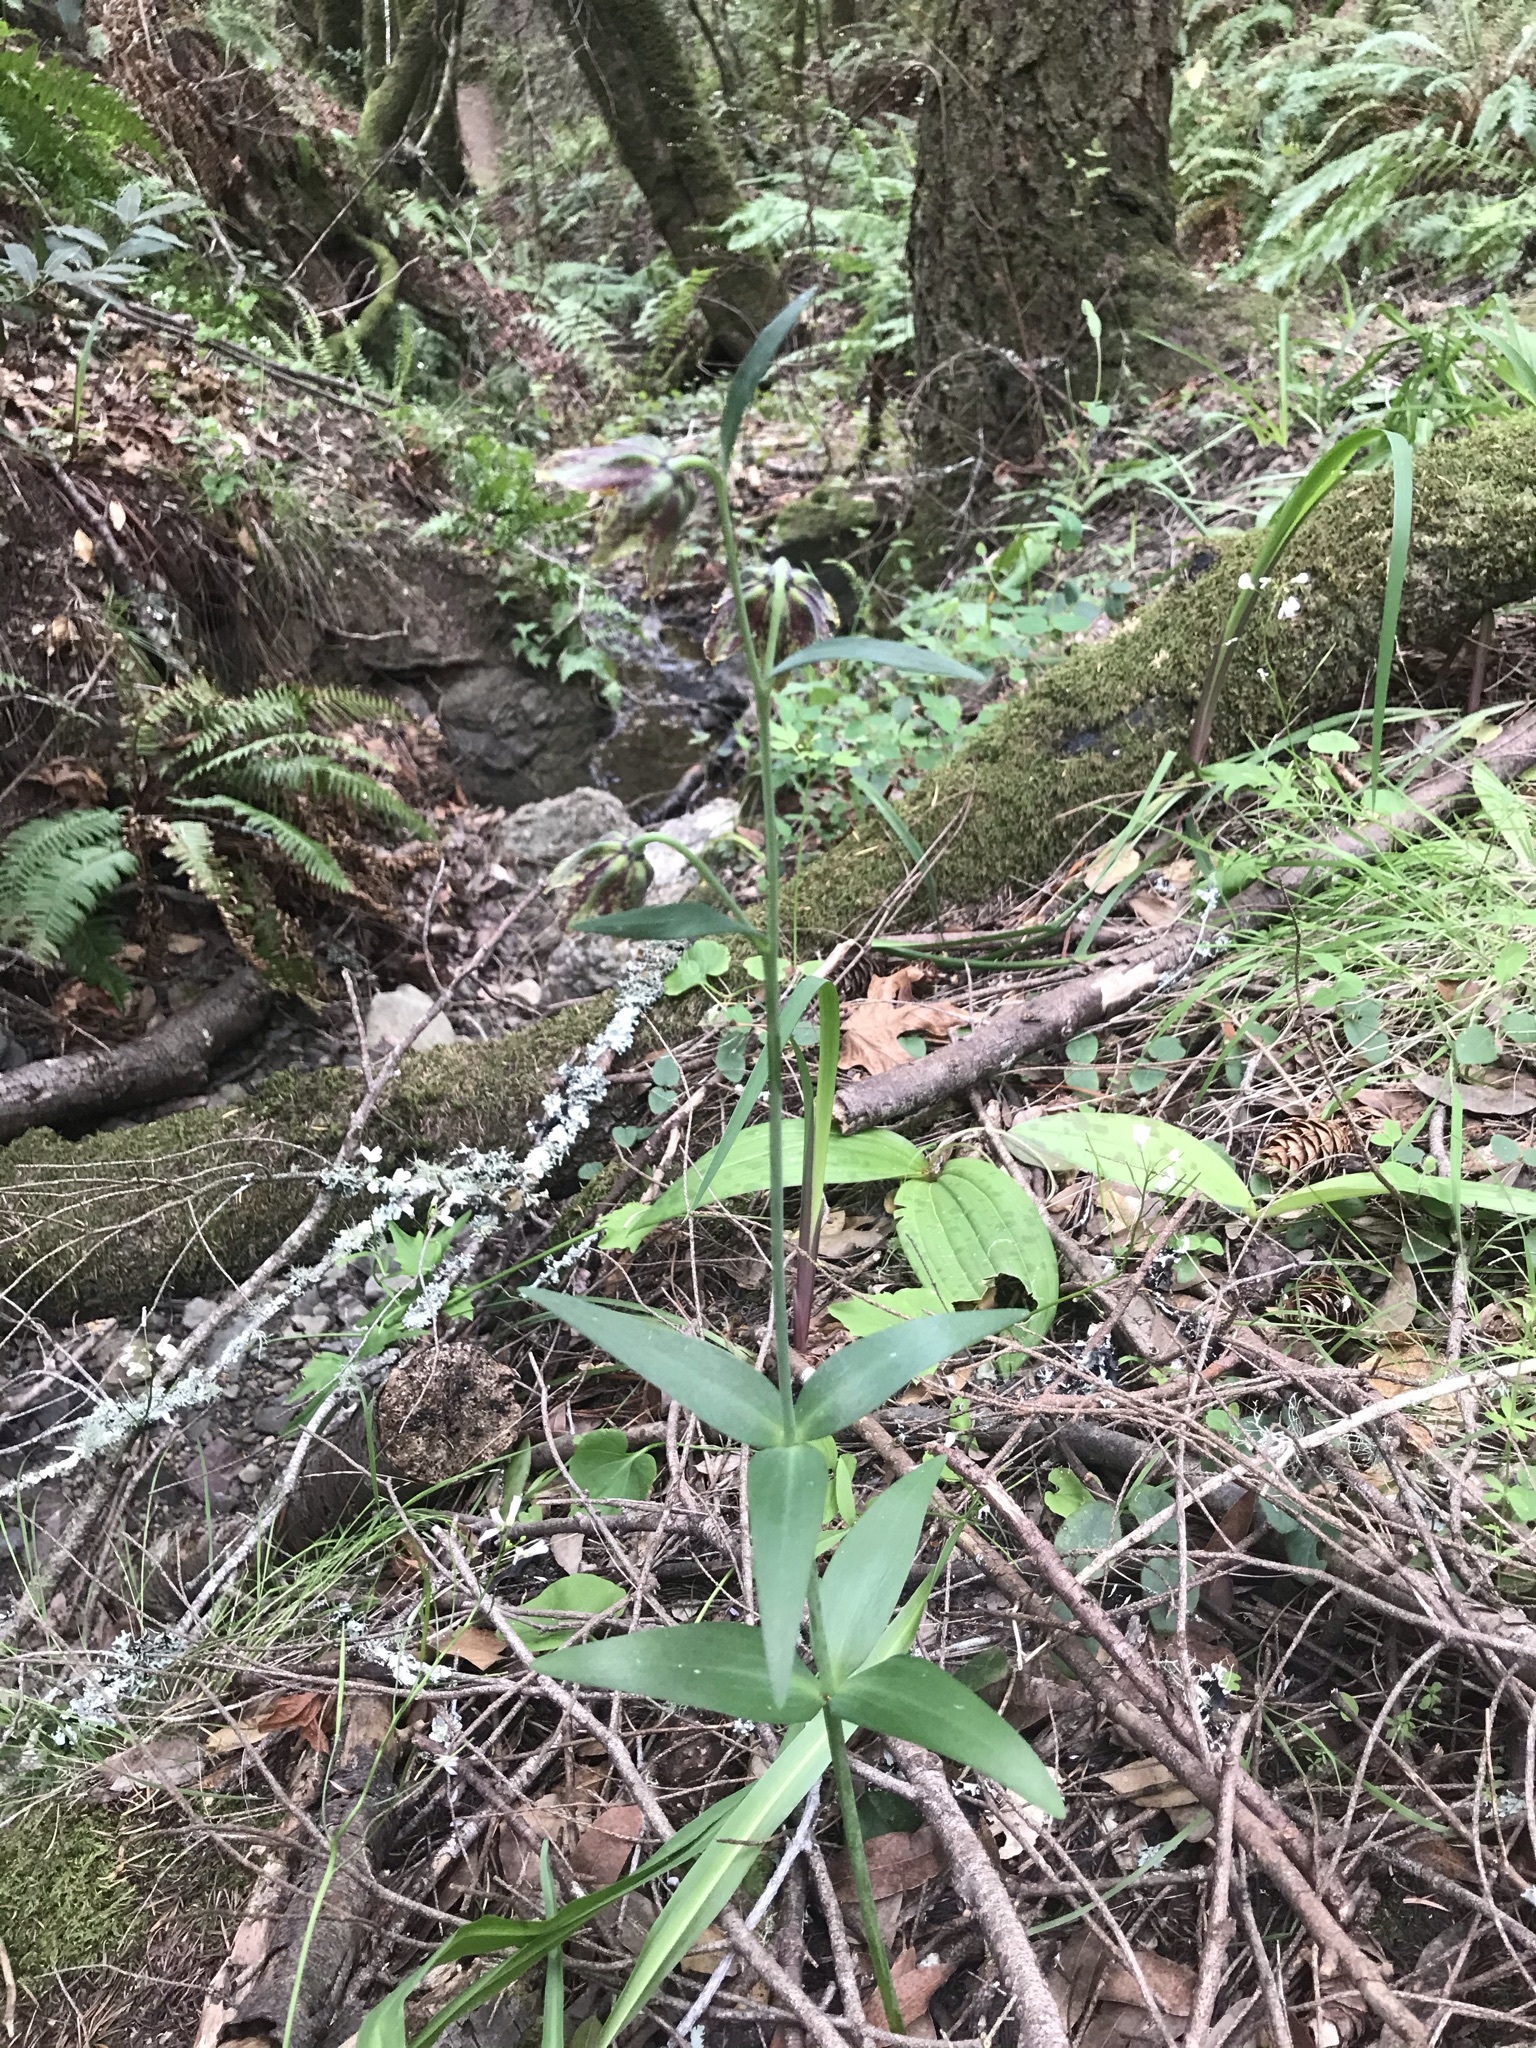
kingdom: Plantae
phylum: Tracheophyta
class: Liliopsida
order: Liliales
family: Liliaceae
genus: Fritillaria
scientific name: Fritillaria affinis
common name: Ojai fritillary
